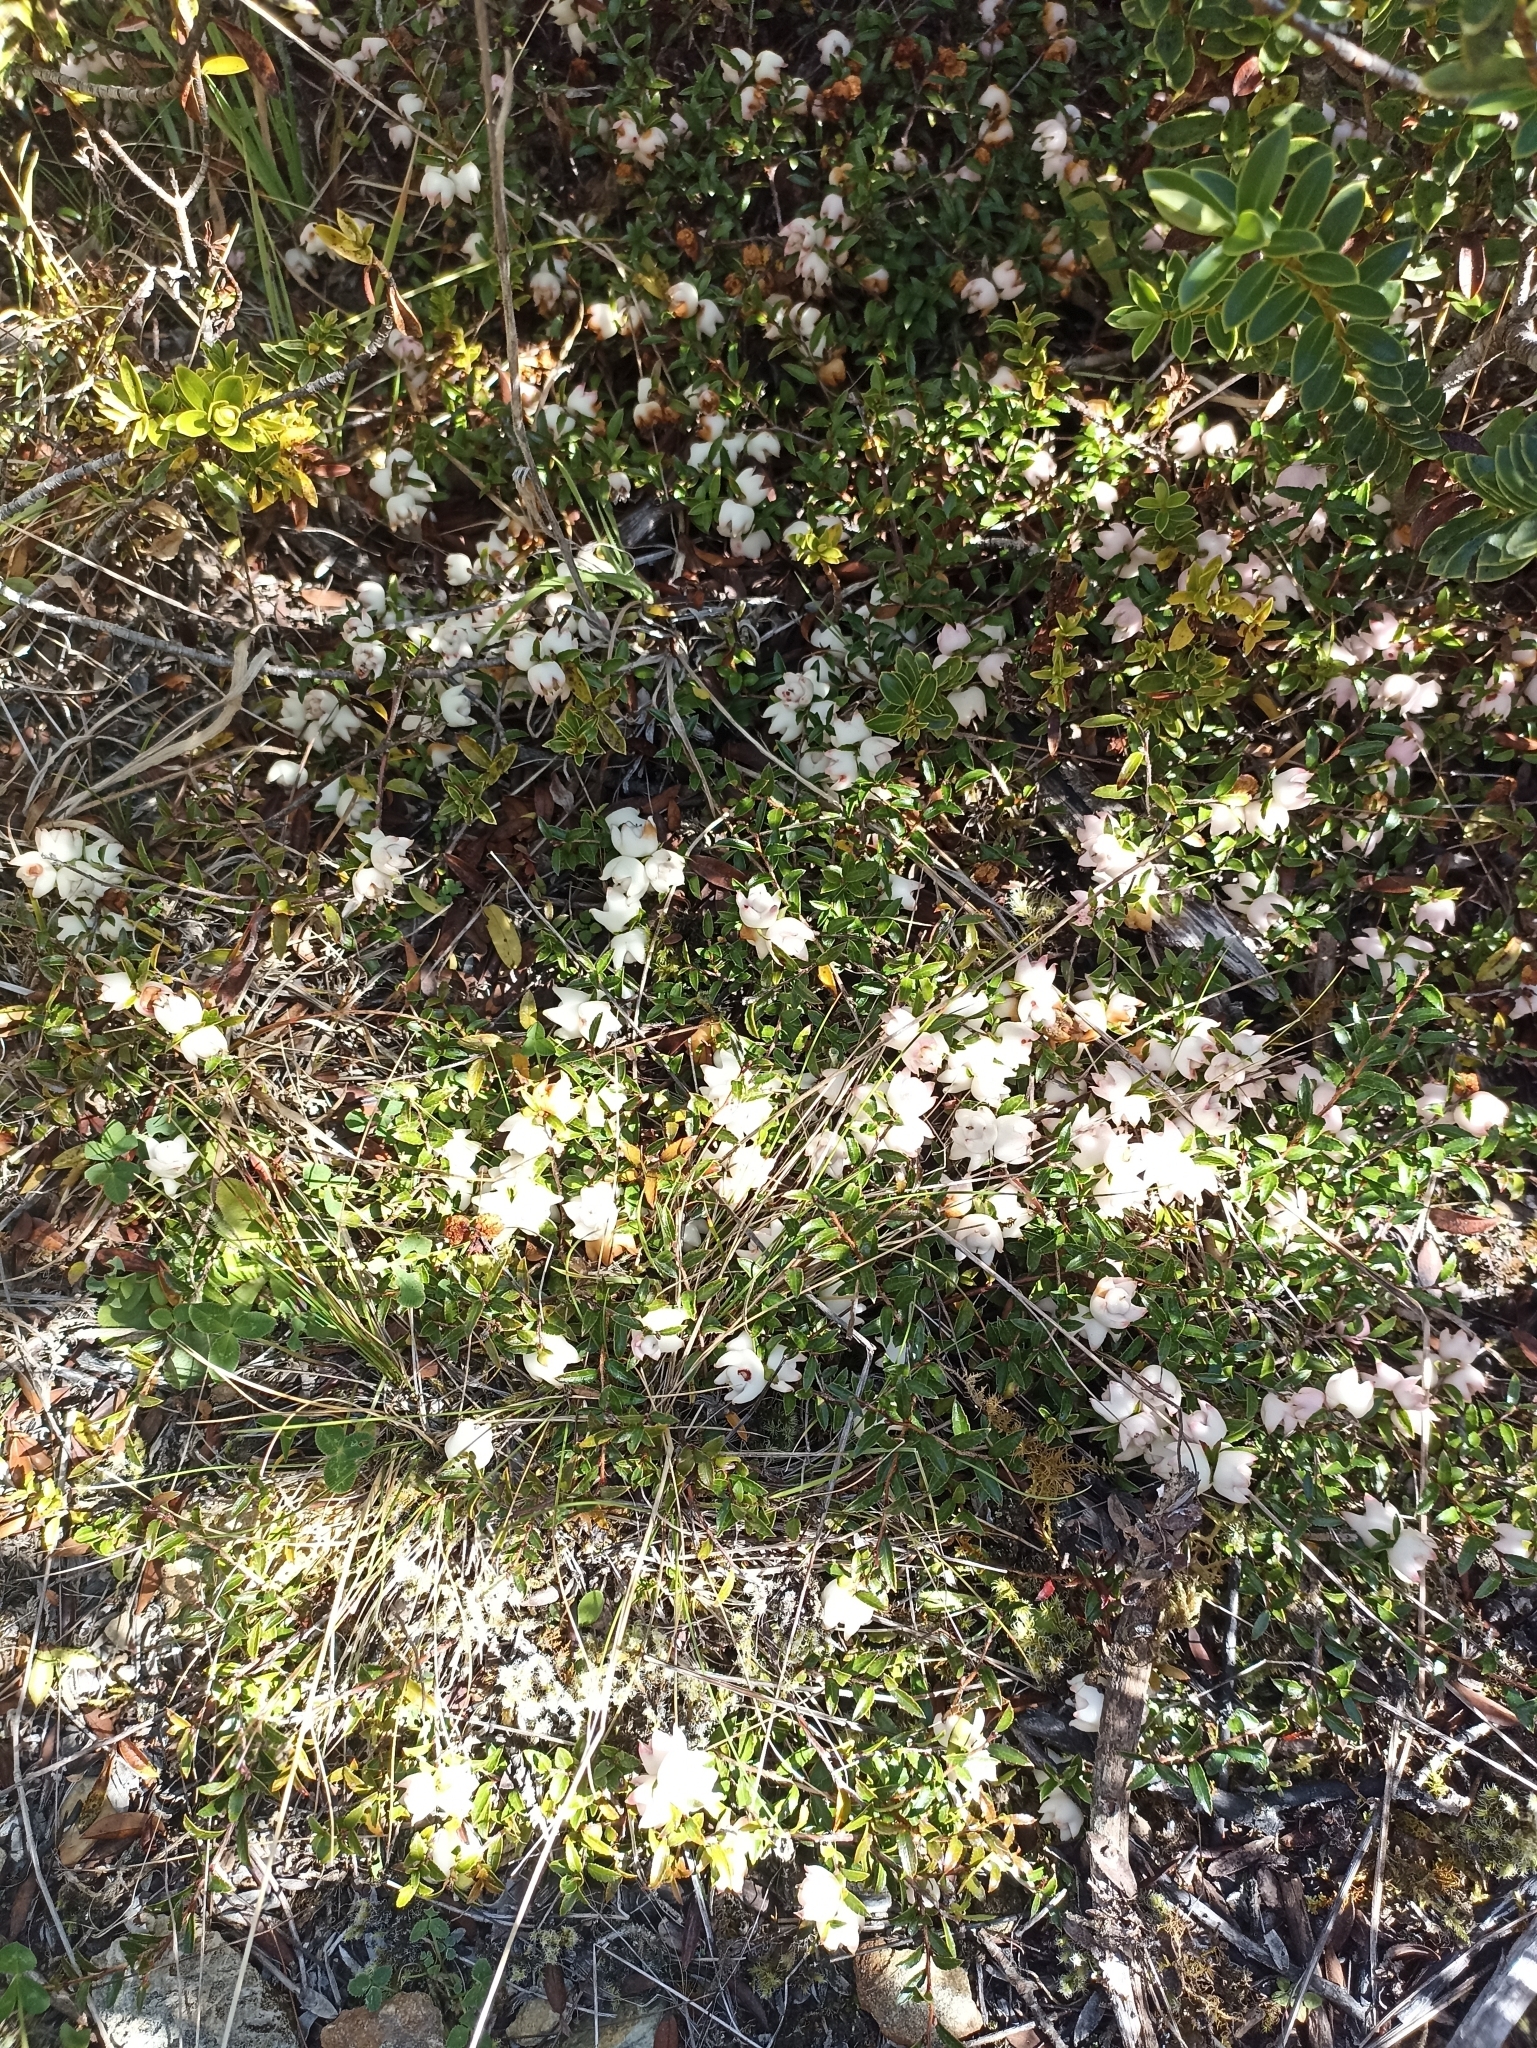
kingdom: Plantae
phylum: Tracheophyta
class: Magnoliopsida
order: Ericales
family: Ericaceae
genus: Gaultheria
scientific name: Gaultheria
